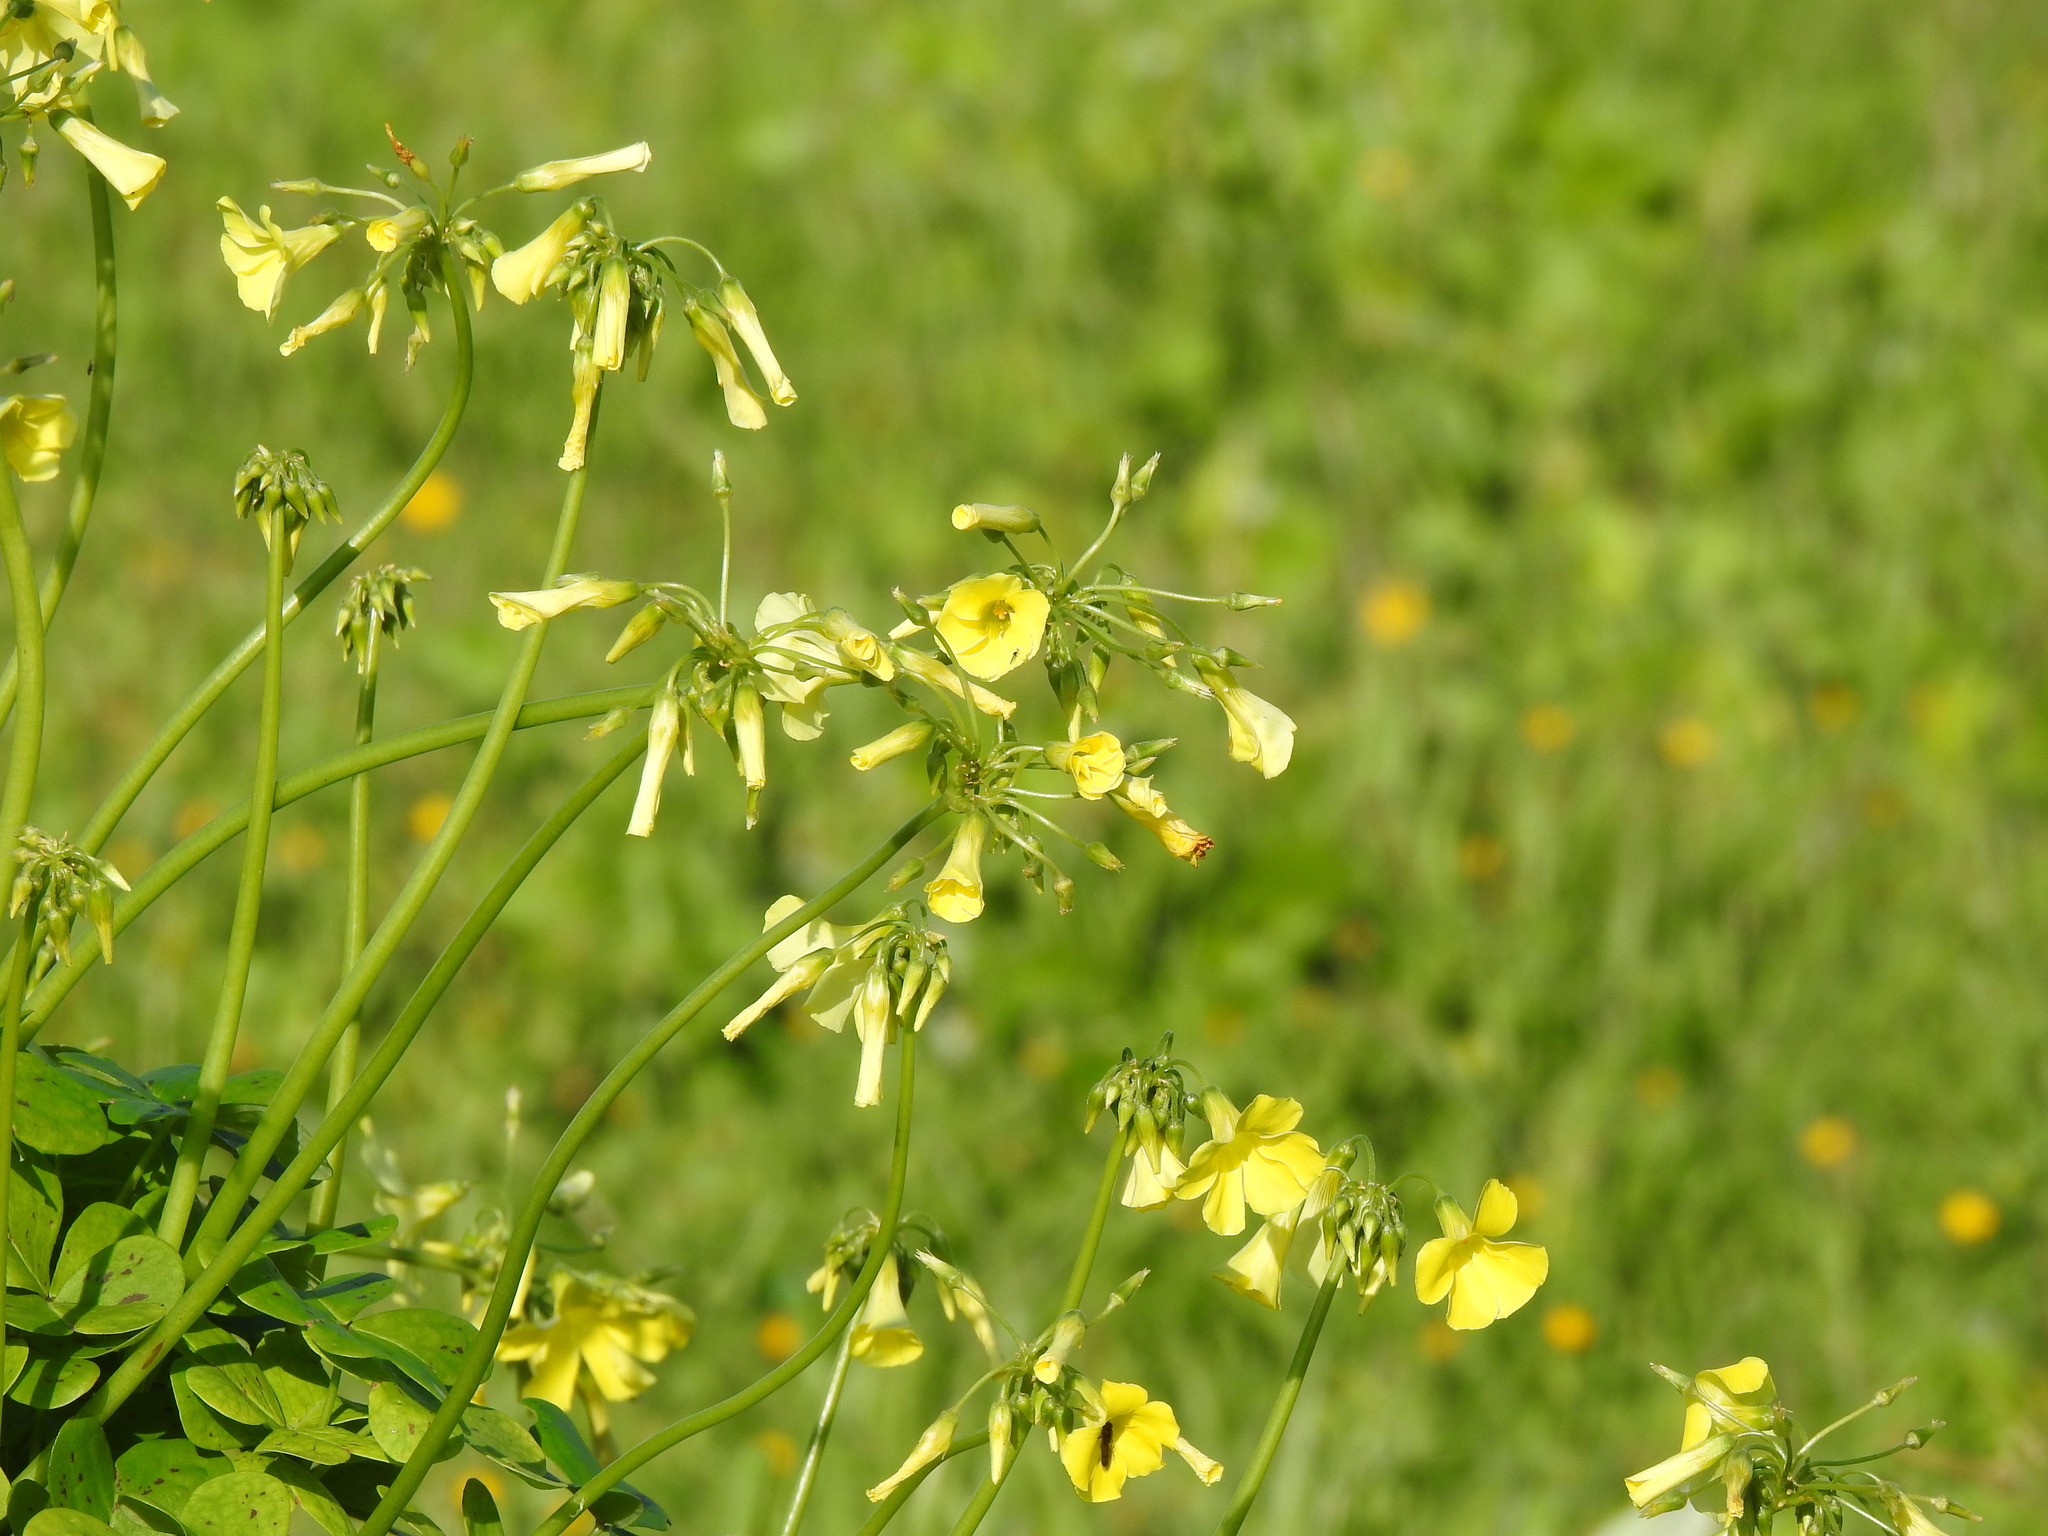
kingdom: Plantae
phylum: Tracheophyta
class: Magnoliopsida
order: Oxalidales
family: Oxalidaceae
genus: Oxalis
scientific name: Oxalis pes-caprae
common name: Bermuda-buttercup
